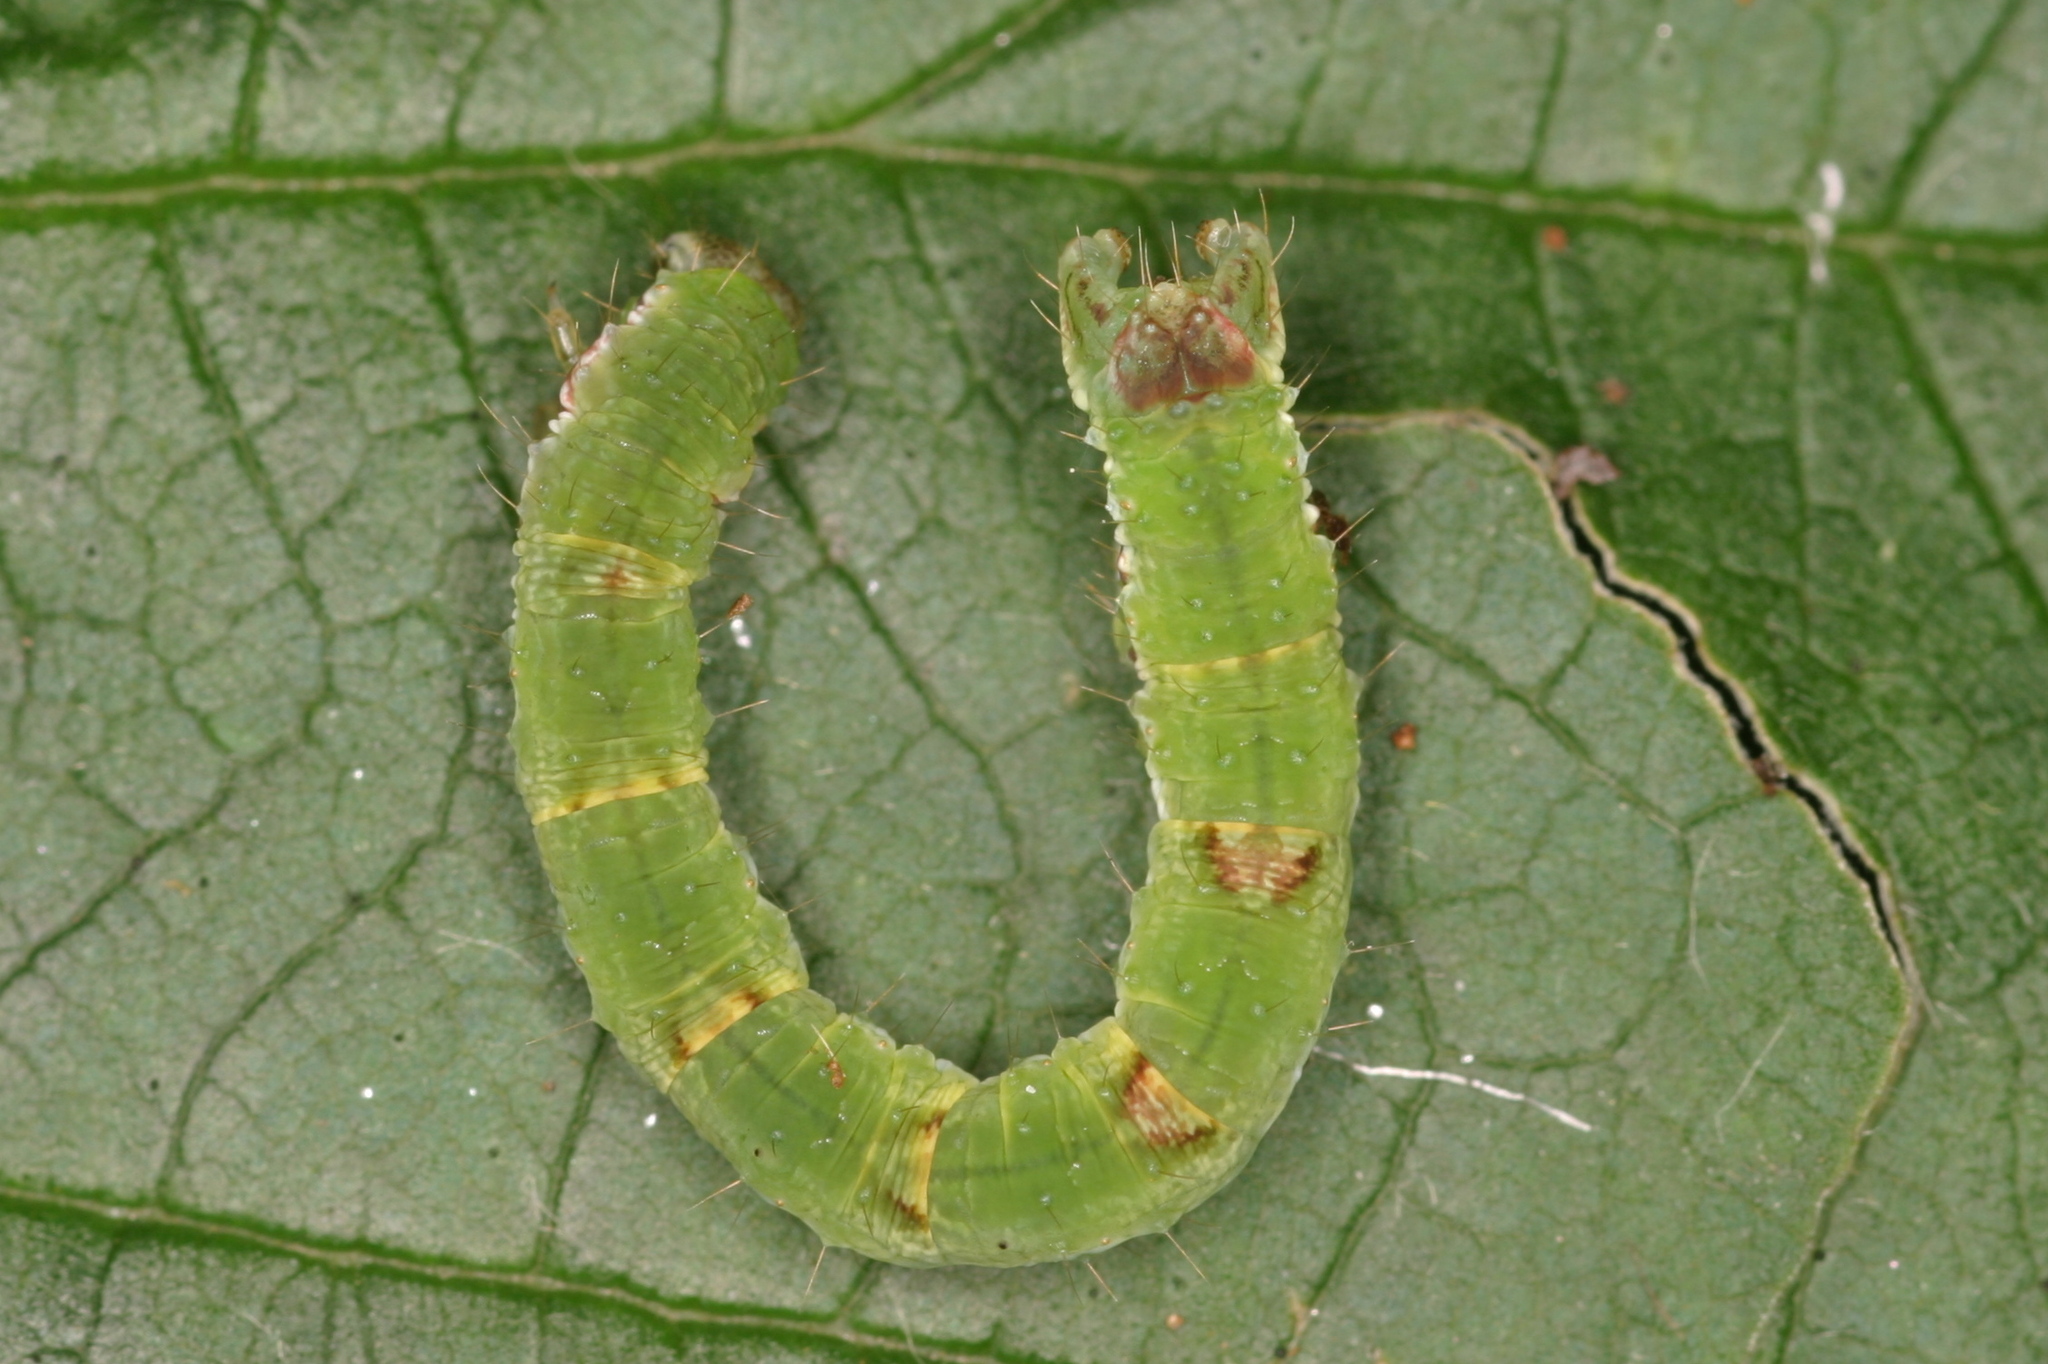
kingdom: Animalia
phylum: Arthropoda
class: Insecta
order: Lepidoptera
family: Geometridae
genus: Mesoleuca
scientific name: Mesoleuca albicillata
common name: Beautiful carpet
